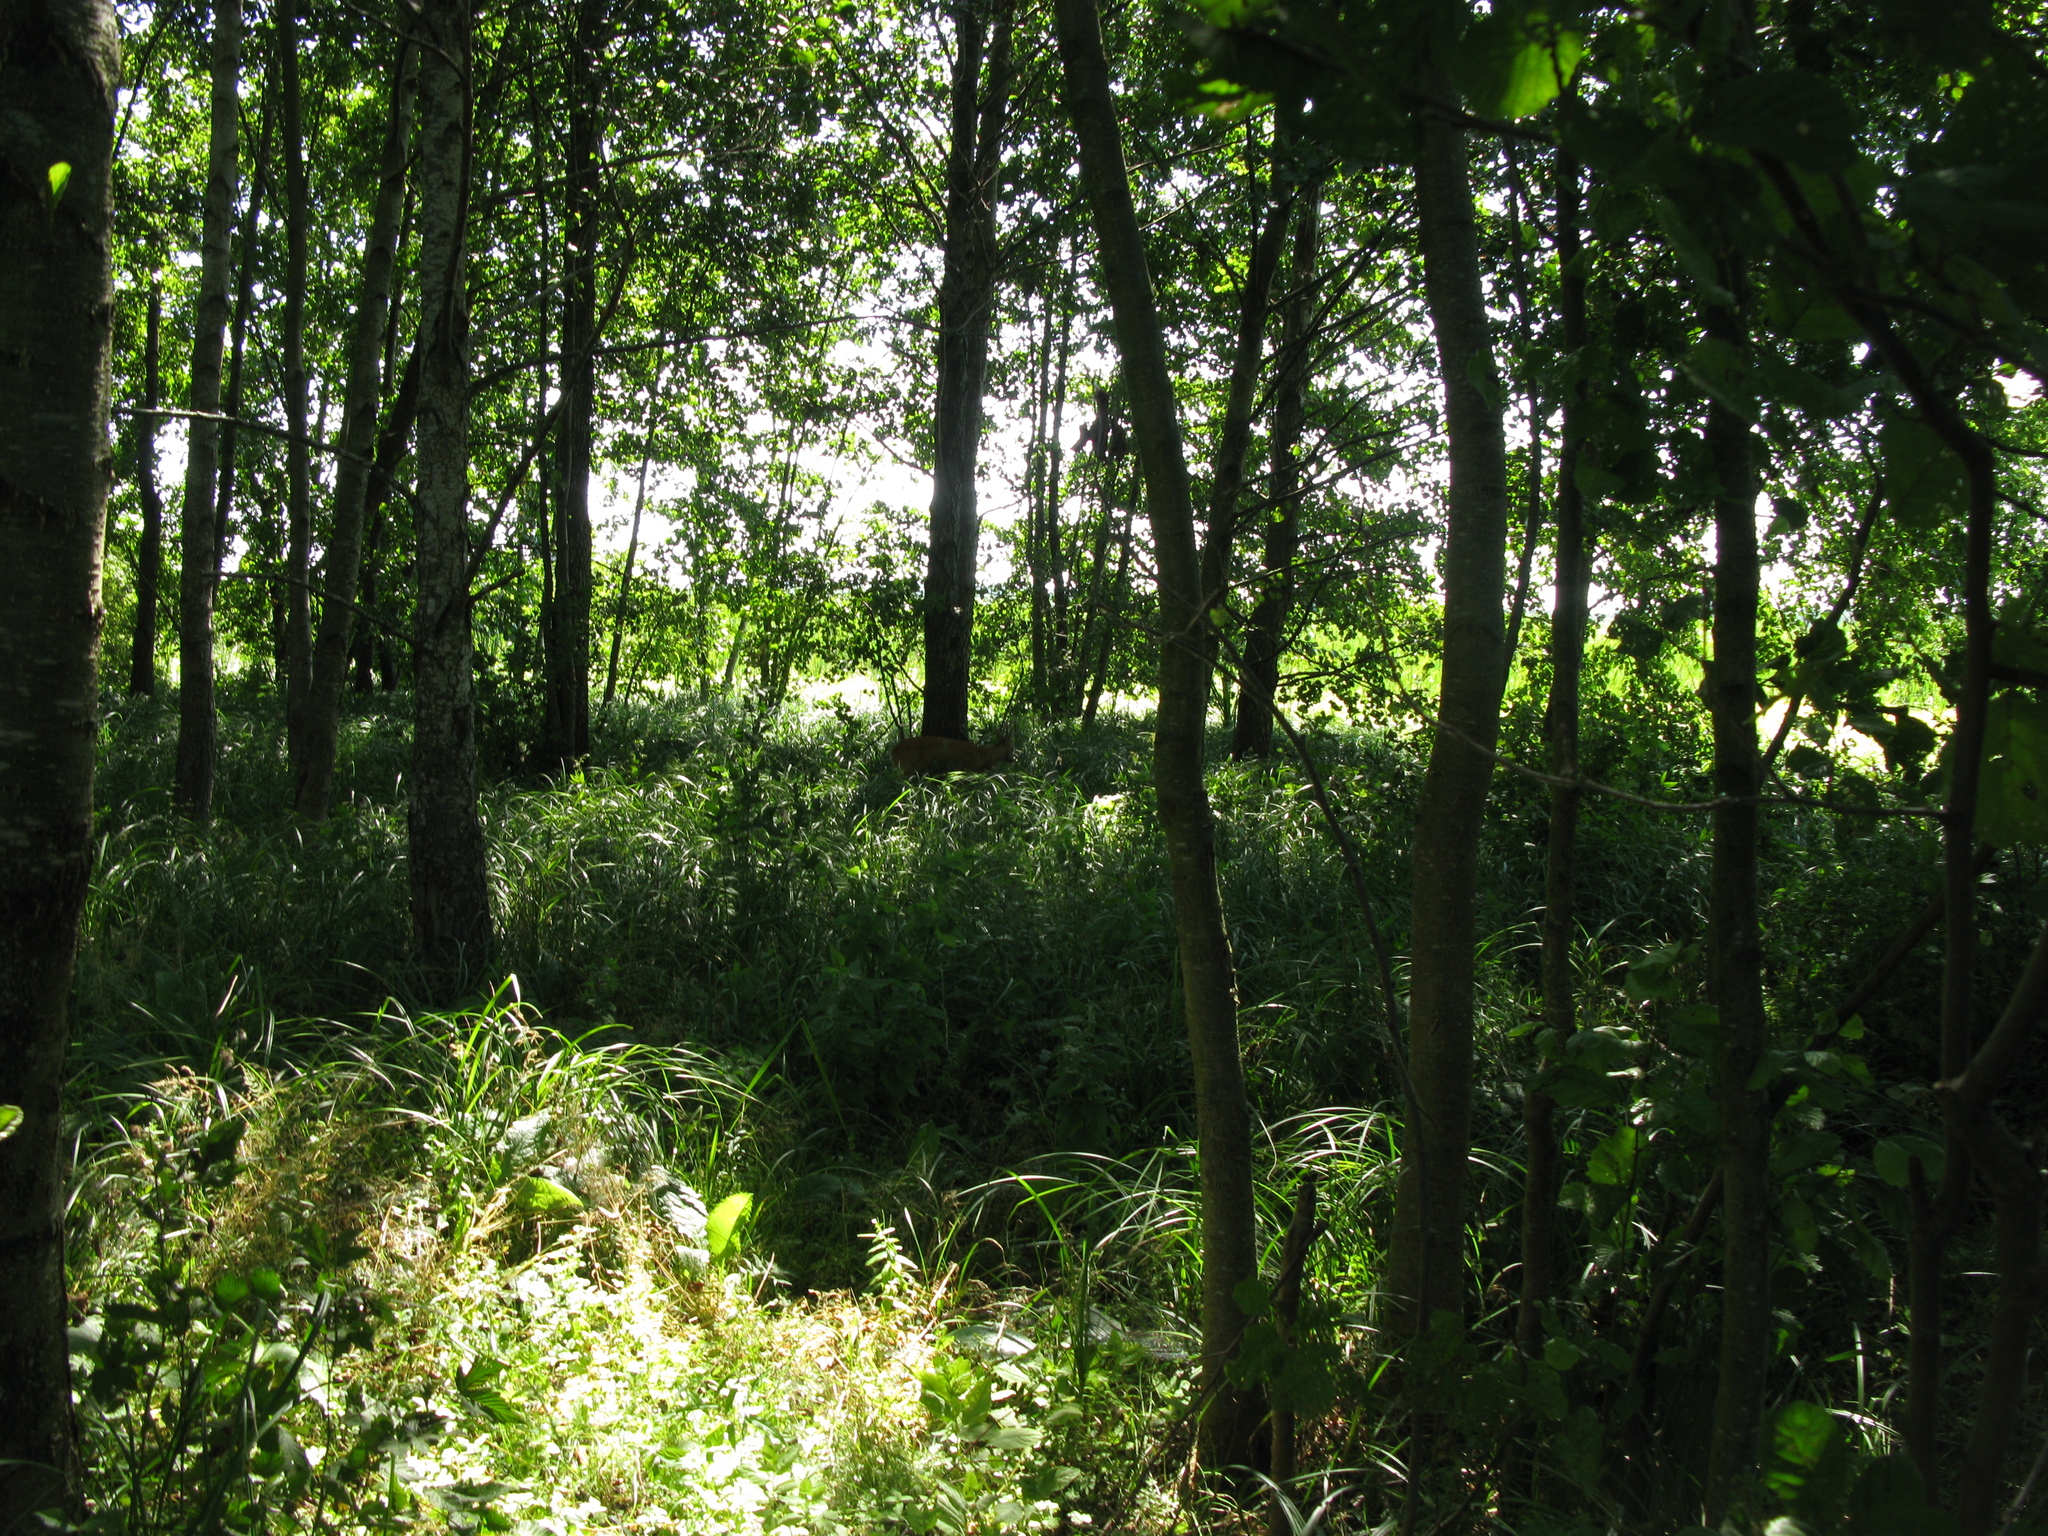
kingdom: Animalia
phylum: Chordata
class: Mammalia
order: Artiodactyla
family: Cervidae
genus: Capreolus
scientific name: Capreolus capreolus
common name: Western roe deer
